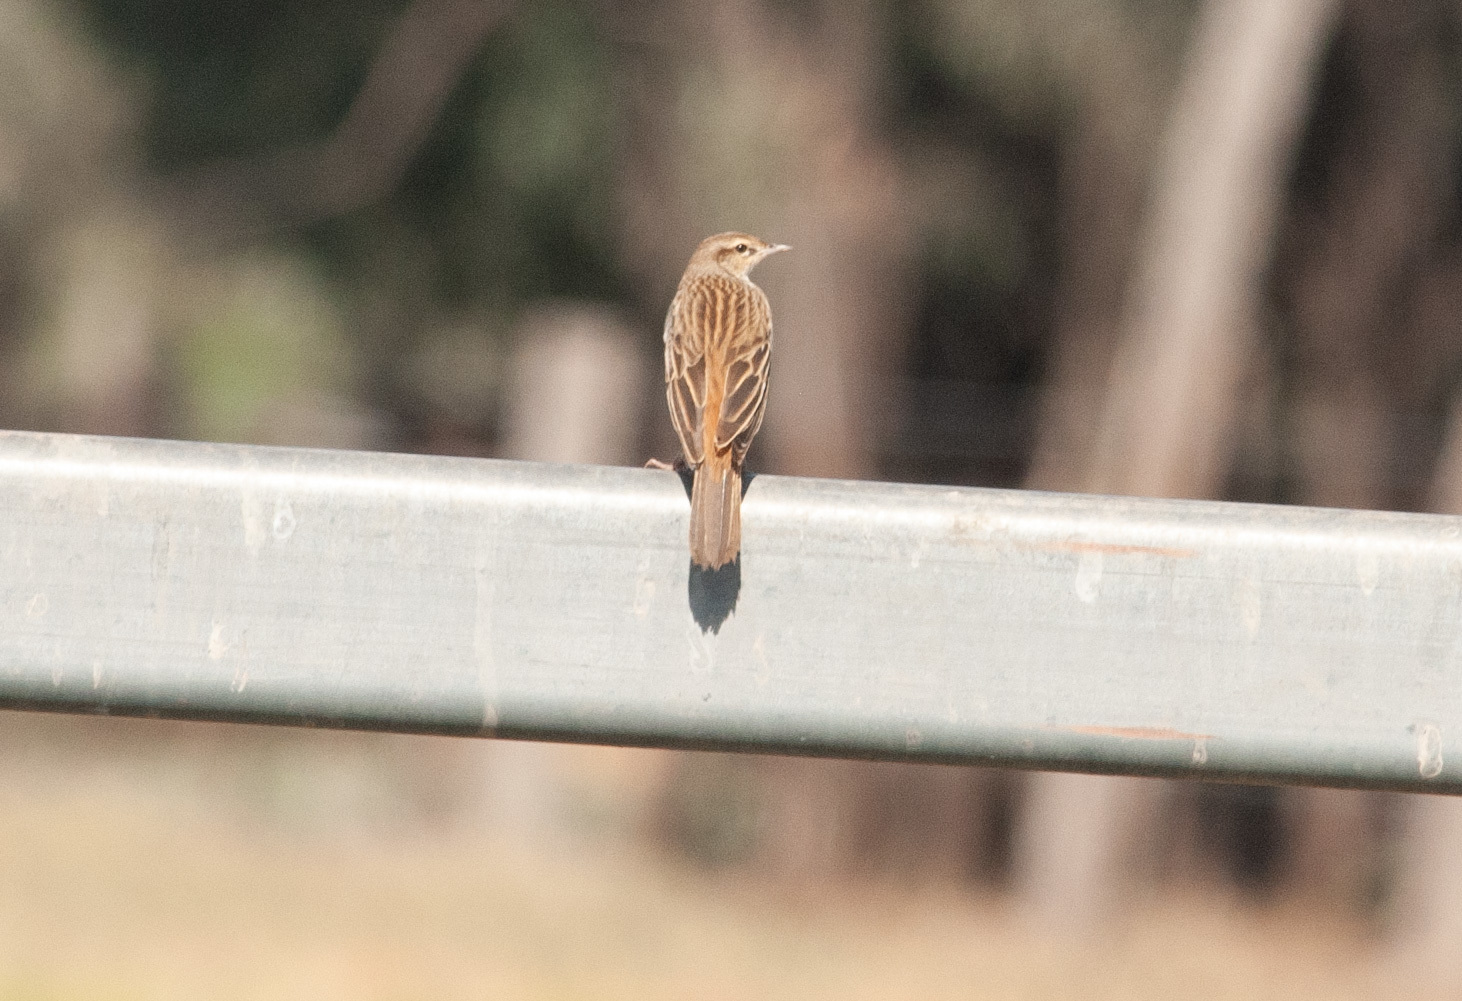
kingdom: Animalia
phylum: Chordata
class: Aves
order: Passeriformes
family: Motacillidae
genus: Anthus
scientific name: Anthus australis
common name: Australian pipit
